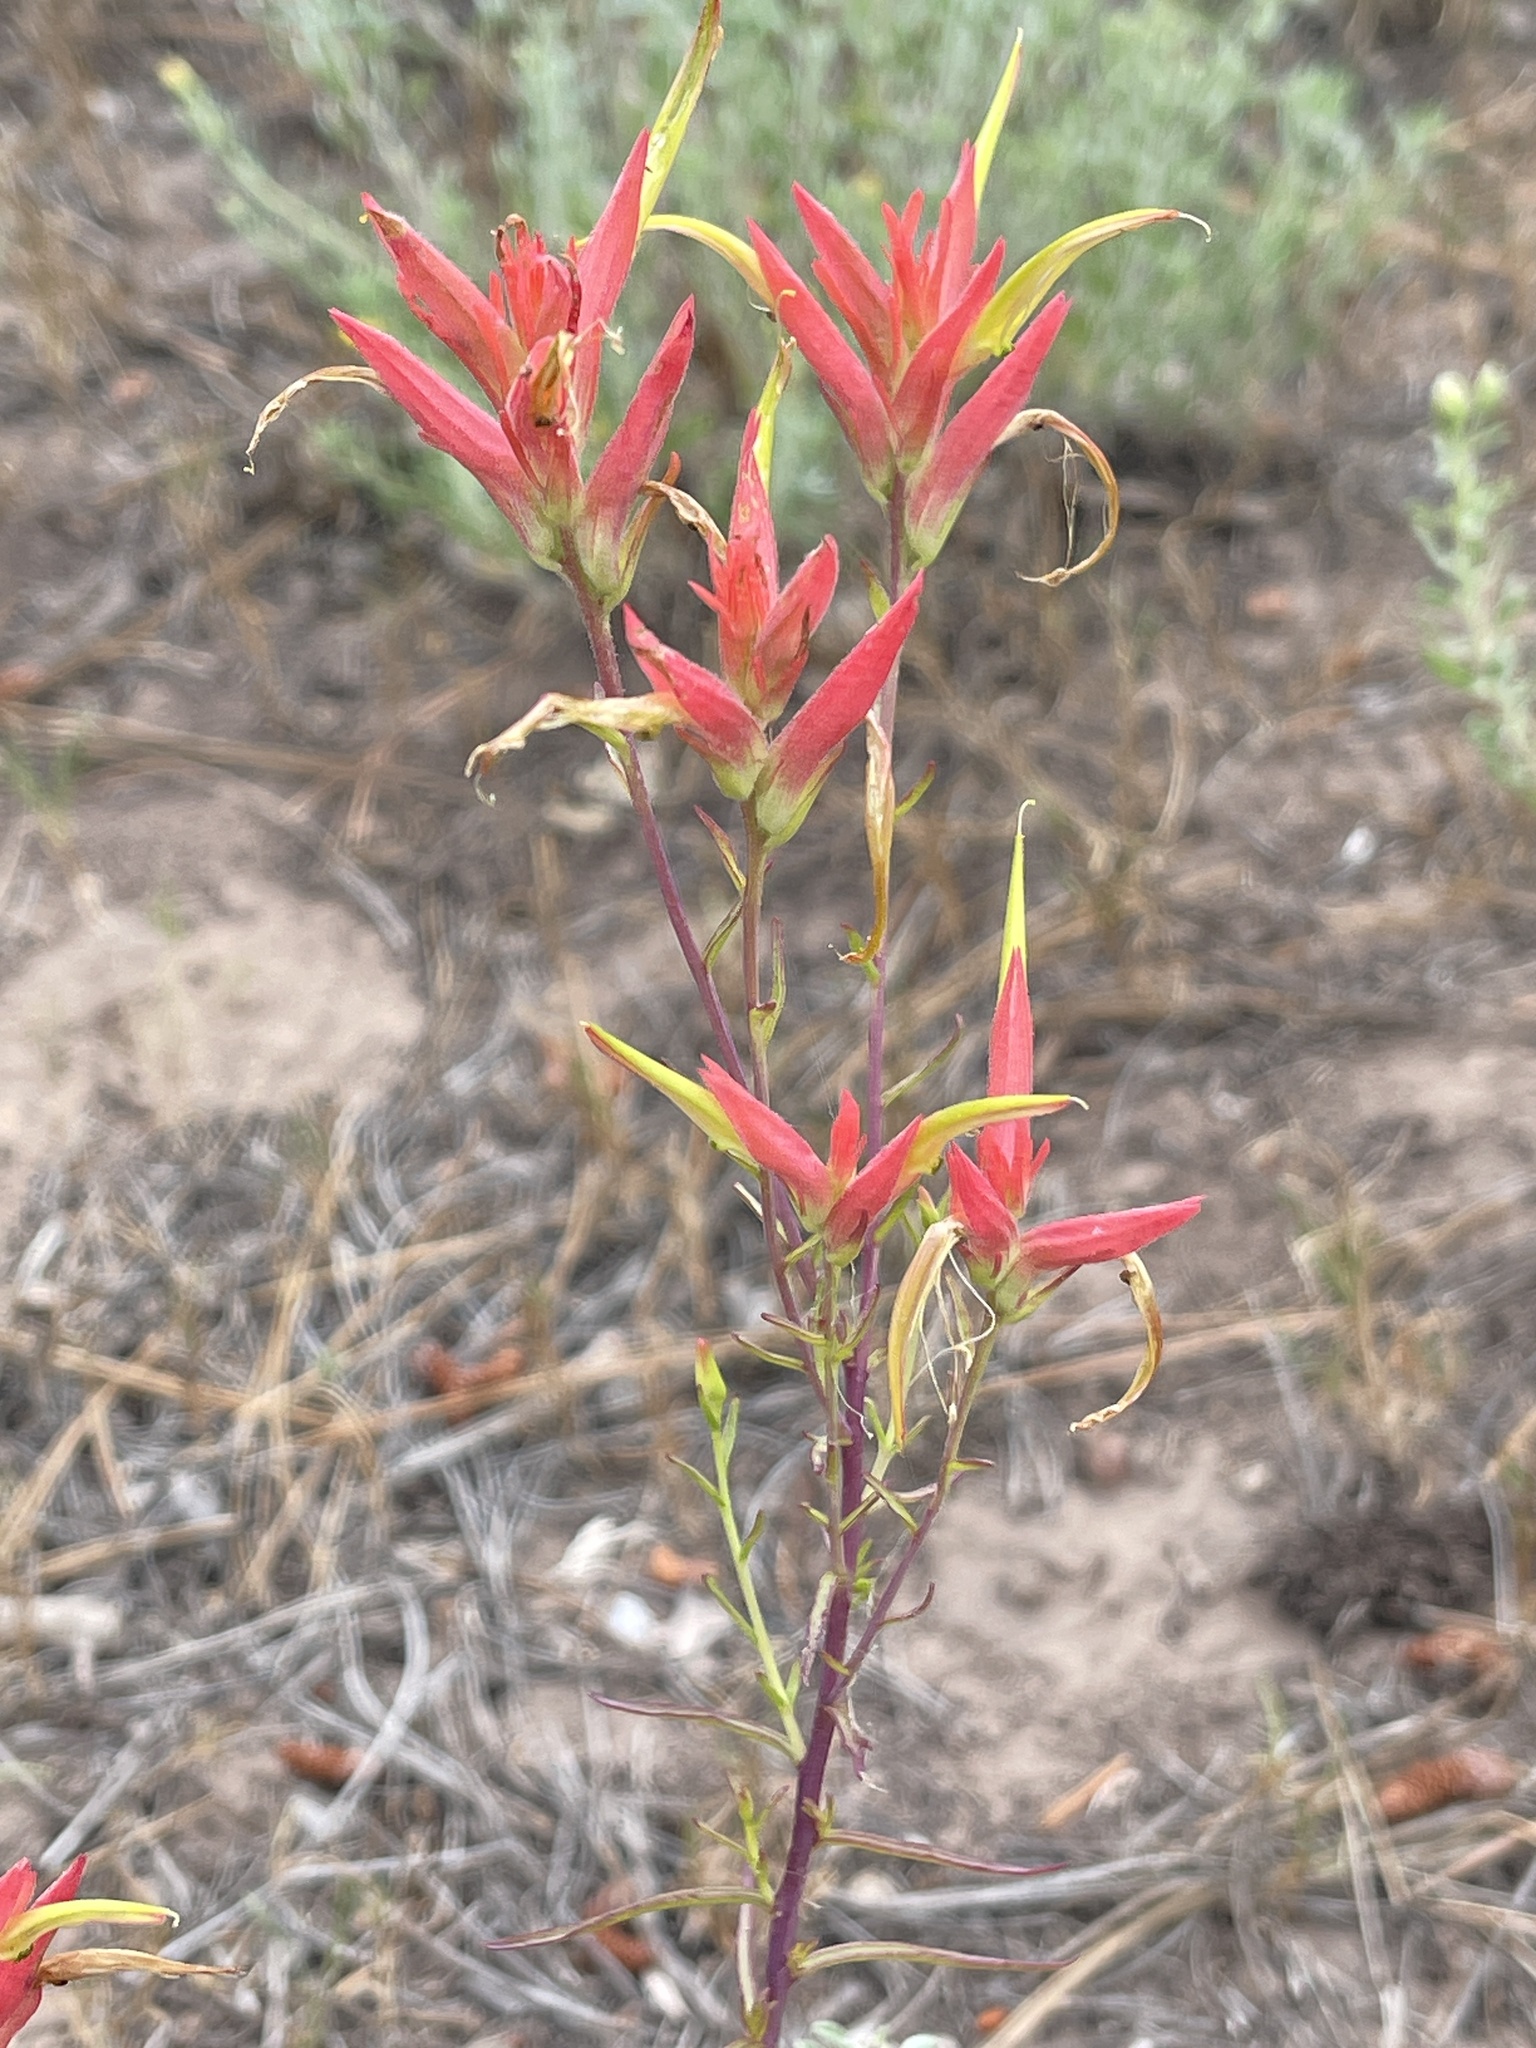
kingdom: Plantae
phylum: Tracheophyta
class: Magnoliopsida
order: Lamiales
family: Orobanchaceae
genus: Castilleja
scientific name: Castilleja linariifolia
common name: Wyoming paintbrush
